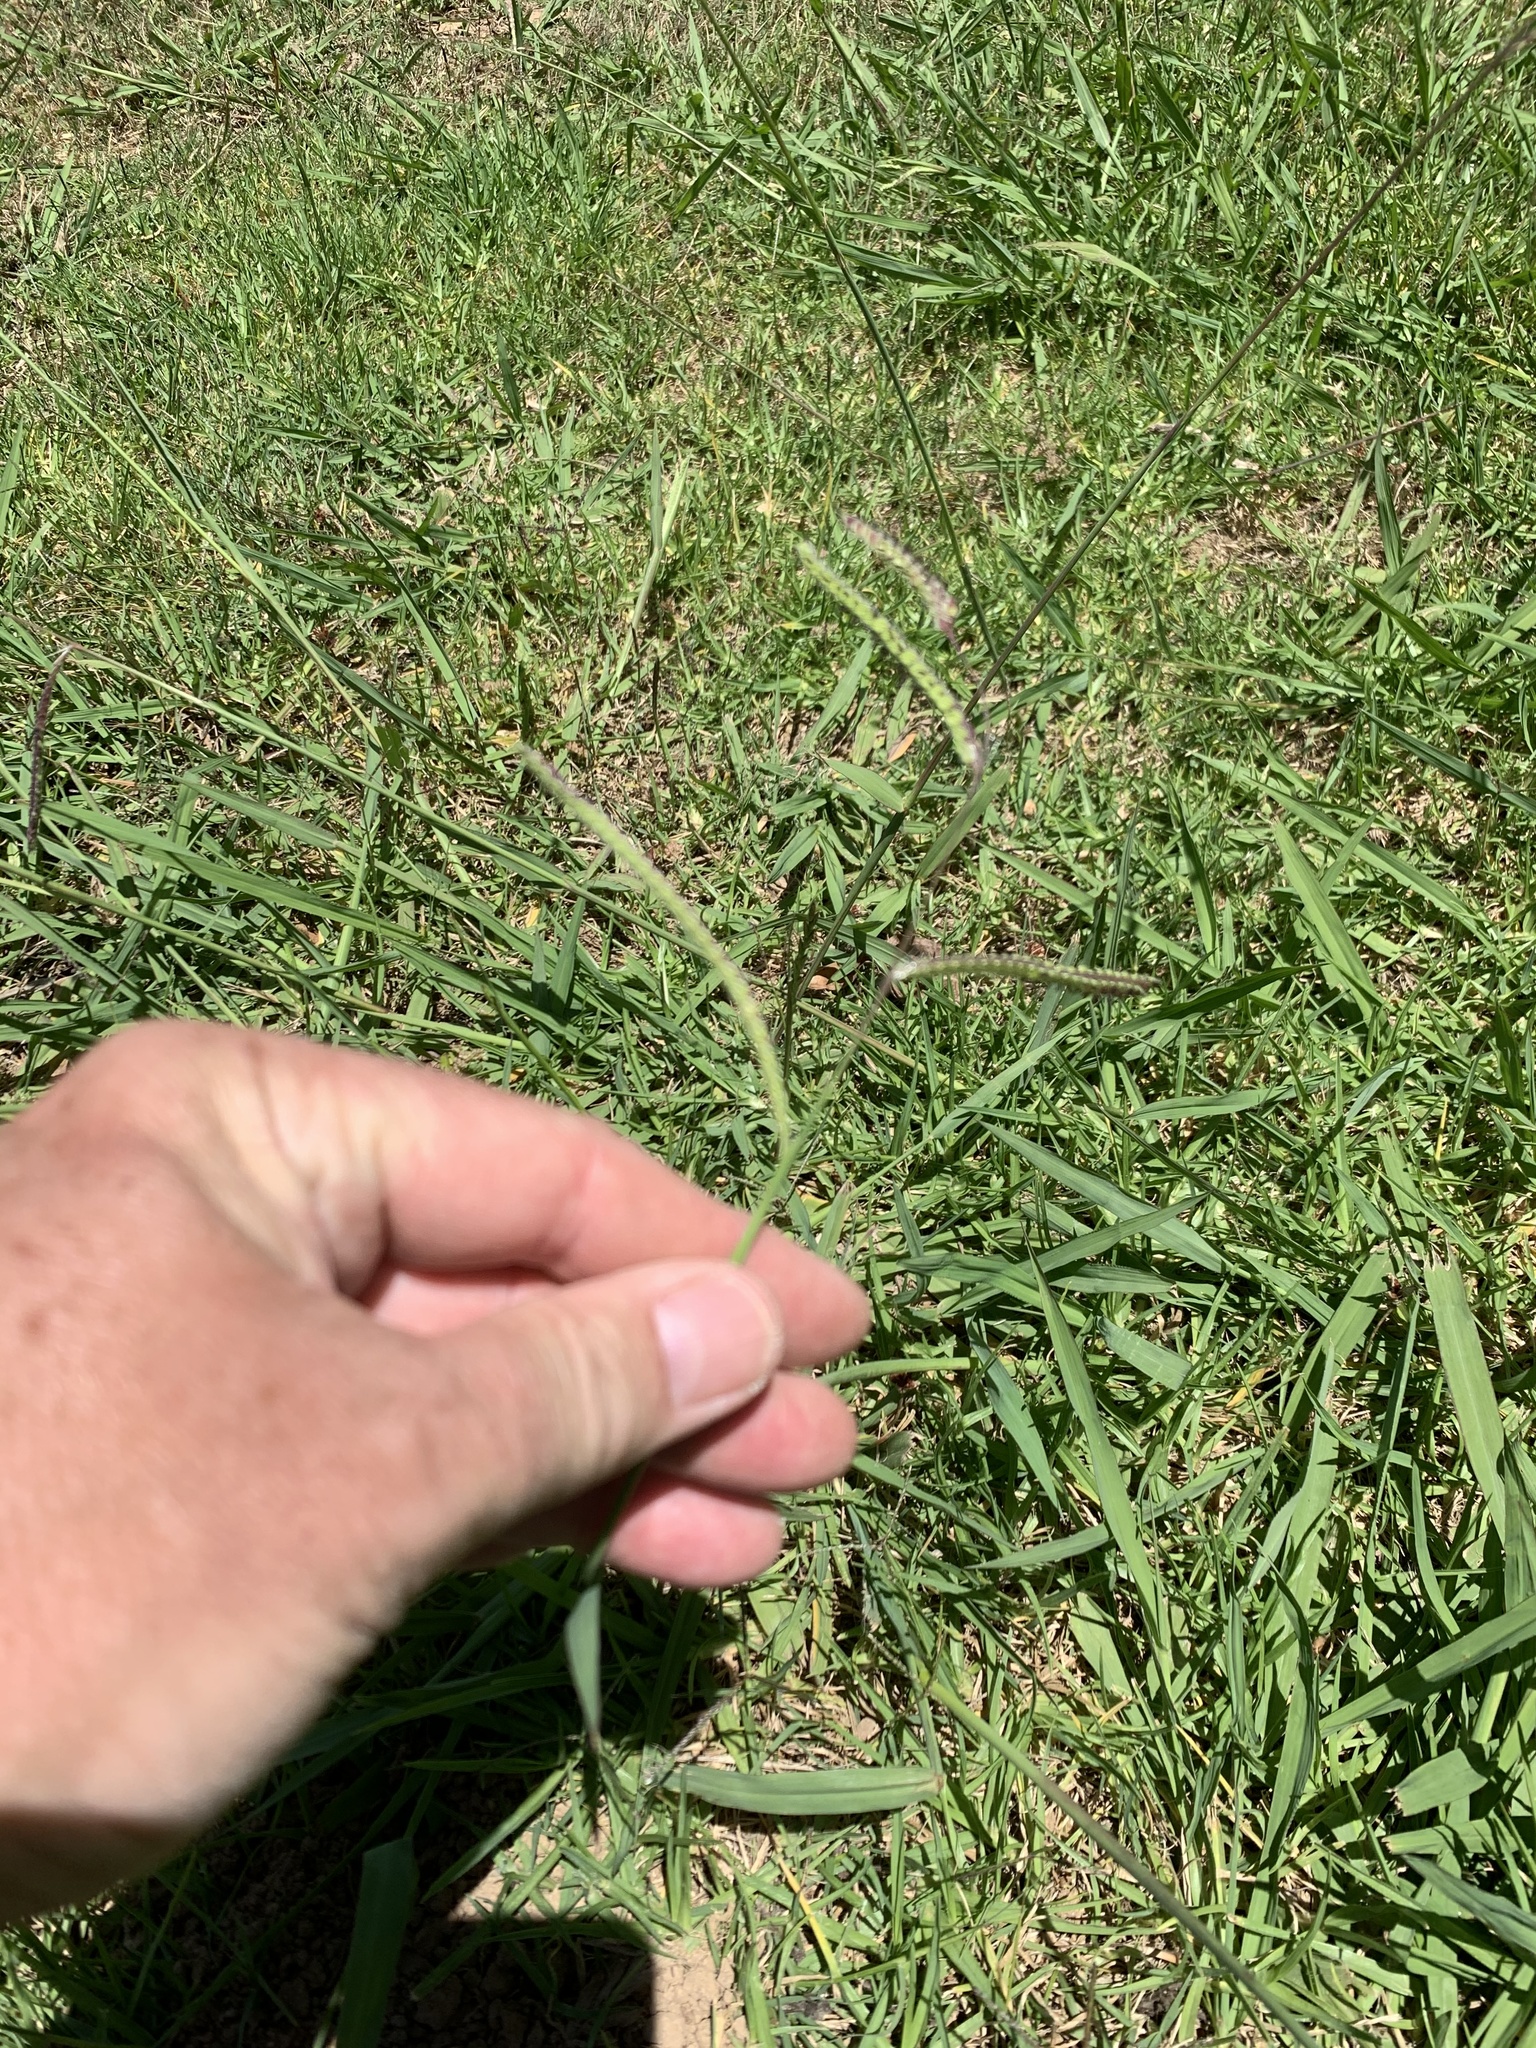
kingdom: Plantae
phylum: Tracheophyta
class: Liliopsida
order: Poales
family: Poaceae
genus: Paspalum
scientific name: Paspalum dilatatum
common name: Dallisgrass
